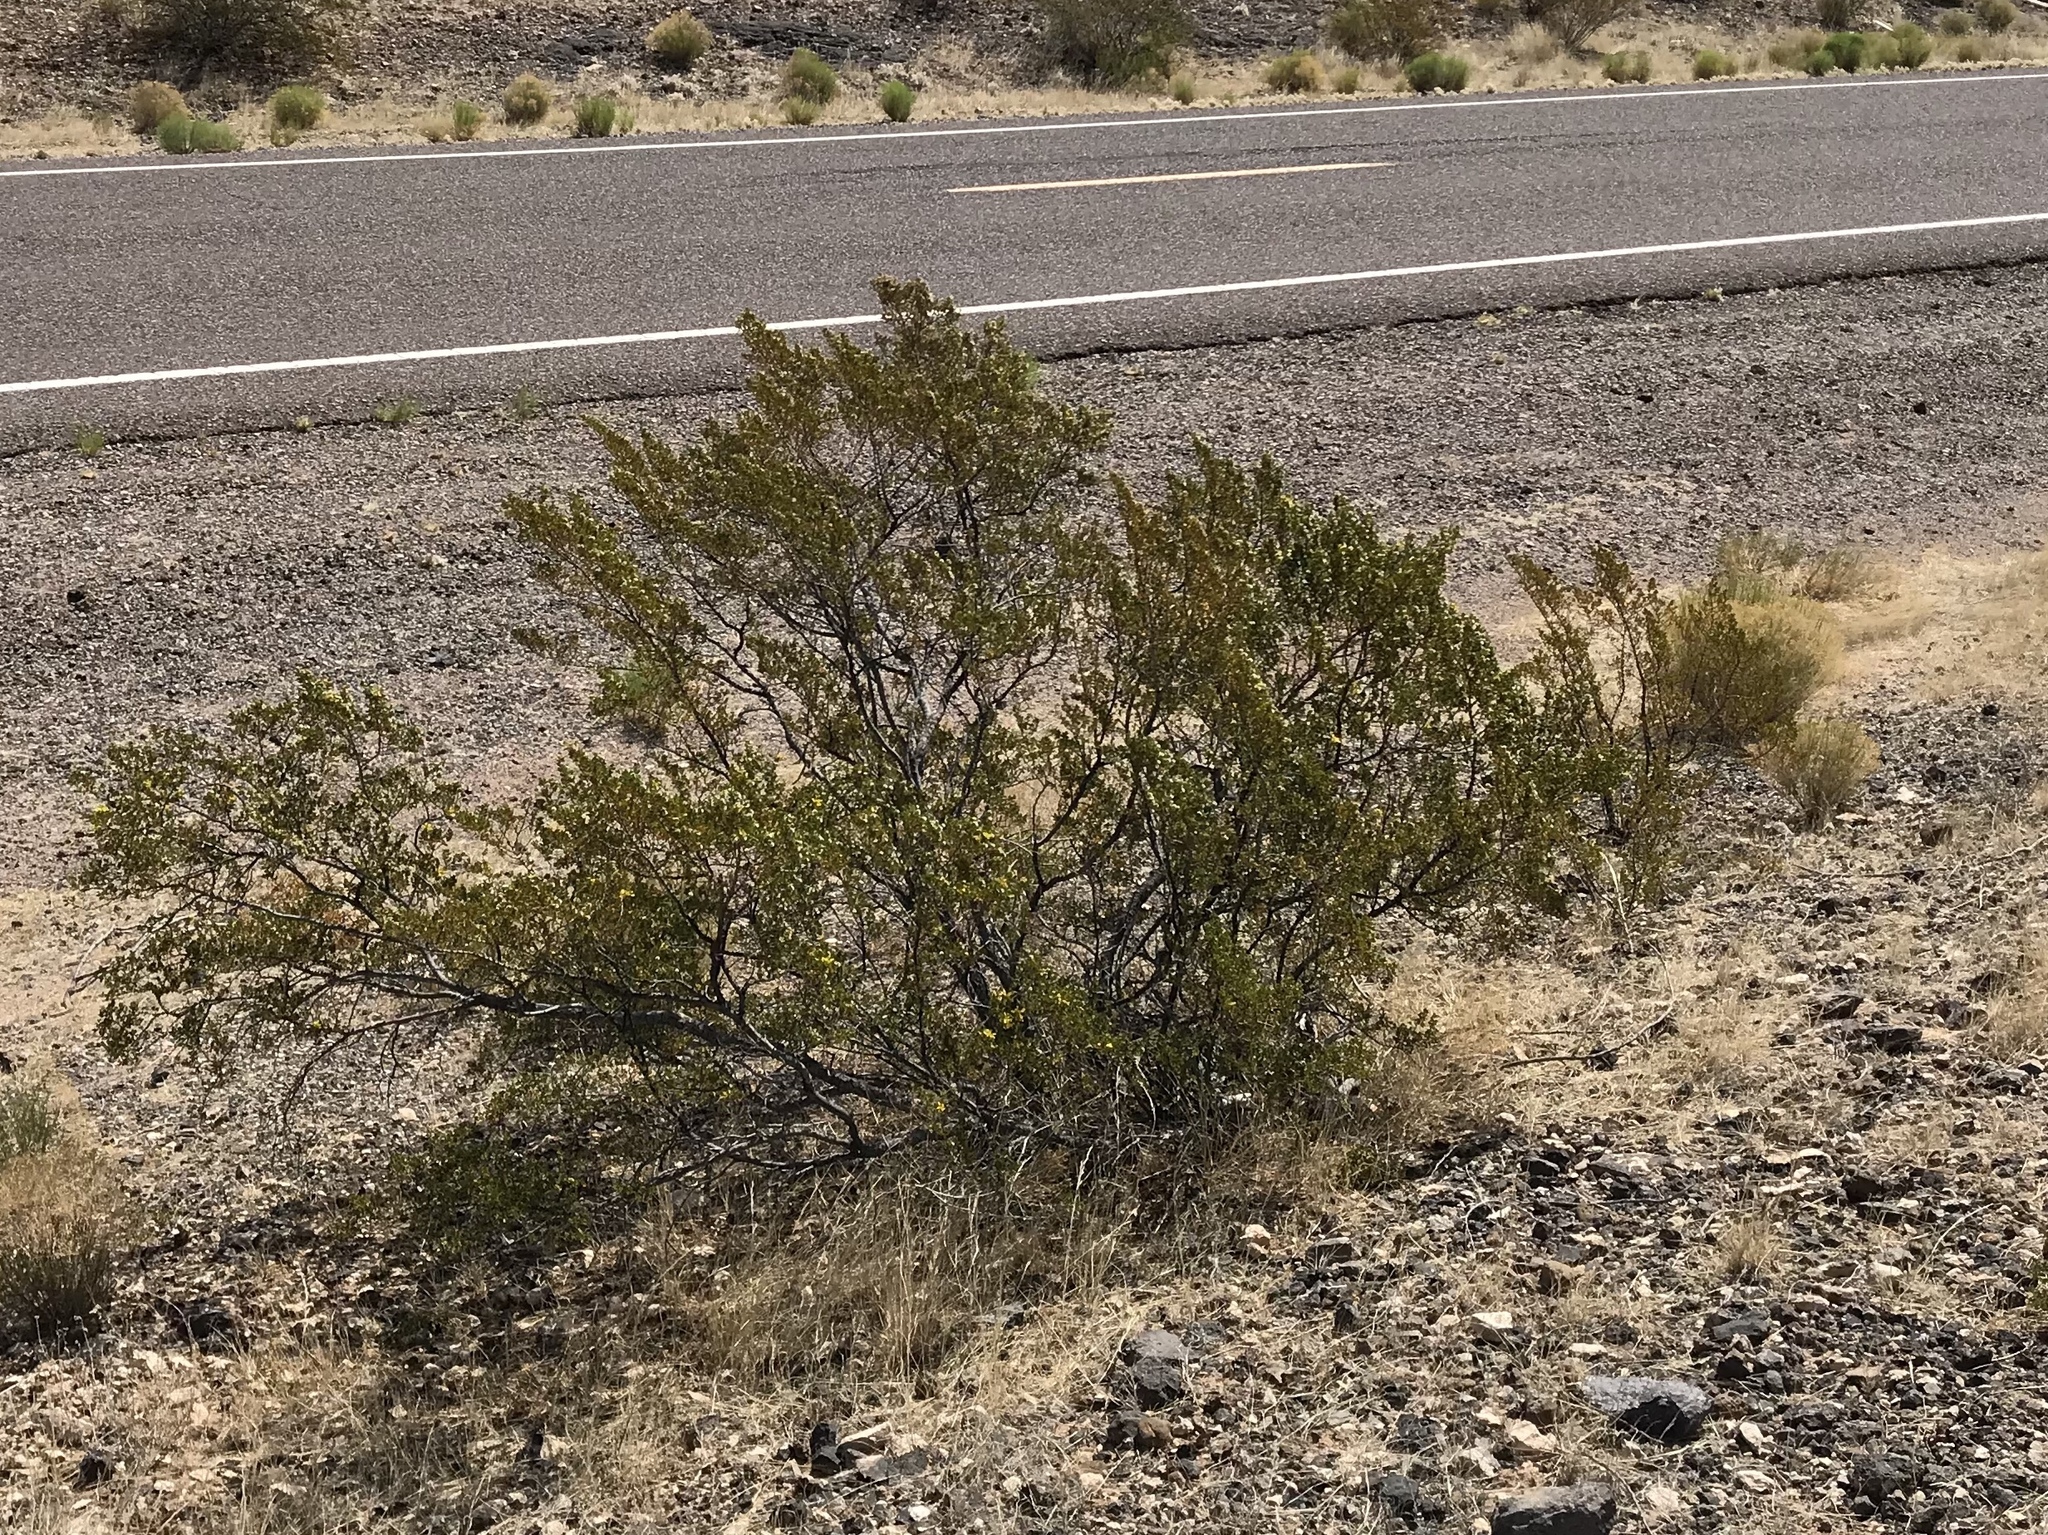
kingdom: Plantae
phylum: Tracheophyta
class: Magnoliopsida
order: Zygophyllales
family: Zygophyllaceae
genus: Larrea
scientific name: Larrea tridentata
